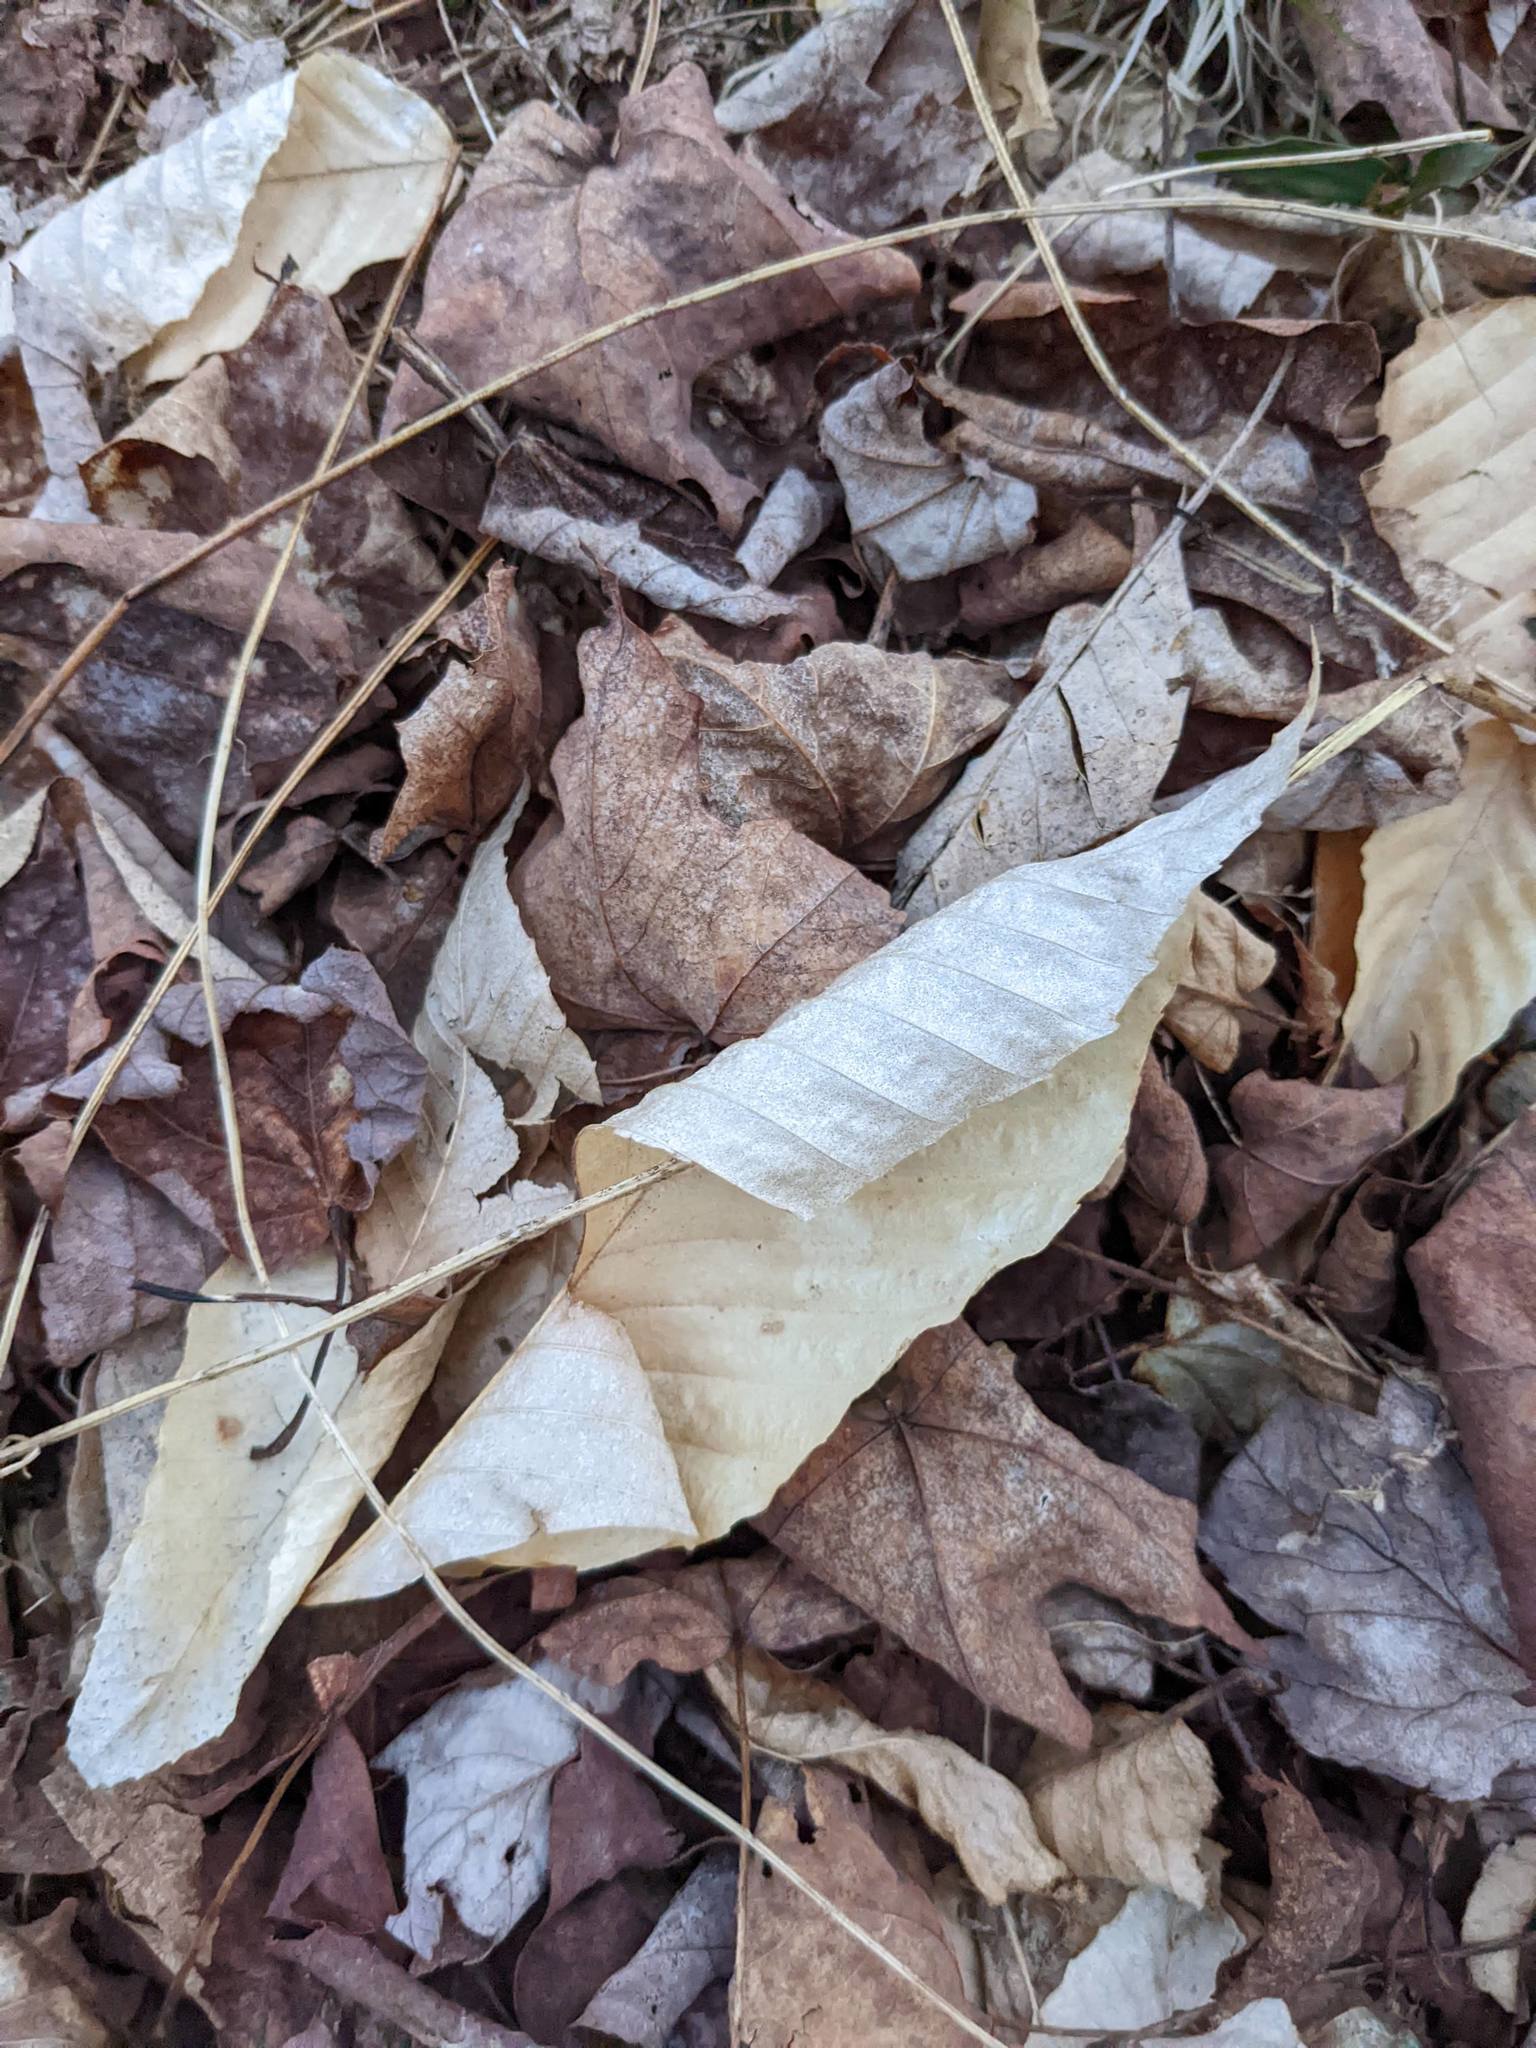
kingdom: Plantae
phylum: Tracheophyta
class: Magnoliopsida
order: Fagales
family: Fagaceae
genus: Fagus
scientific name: Fagus grandifolia
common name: American beech
